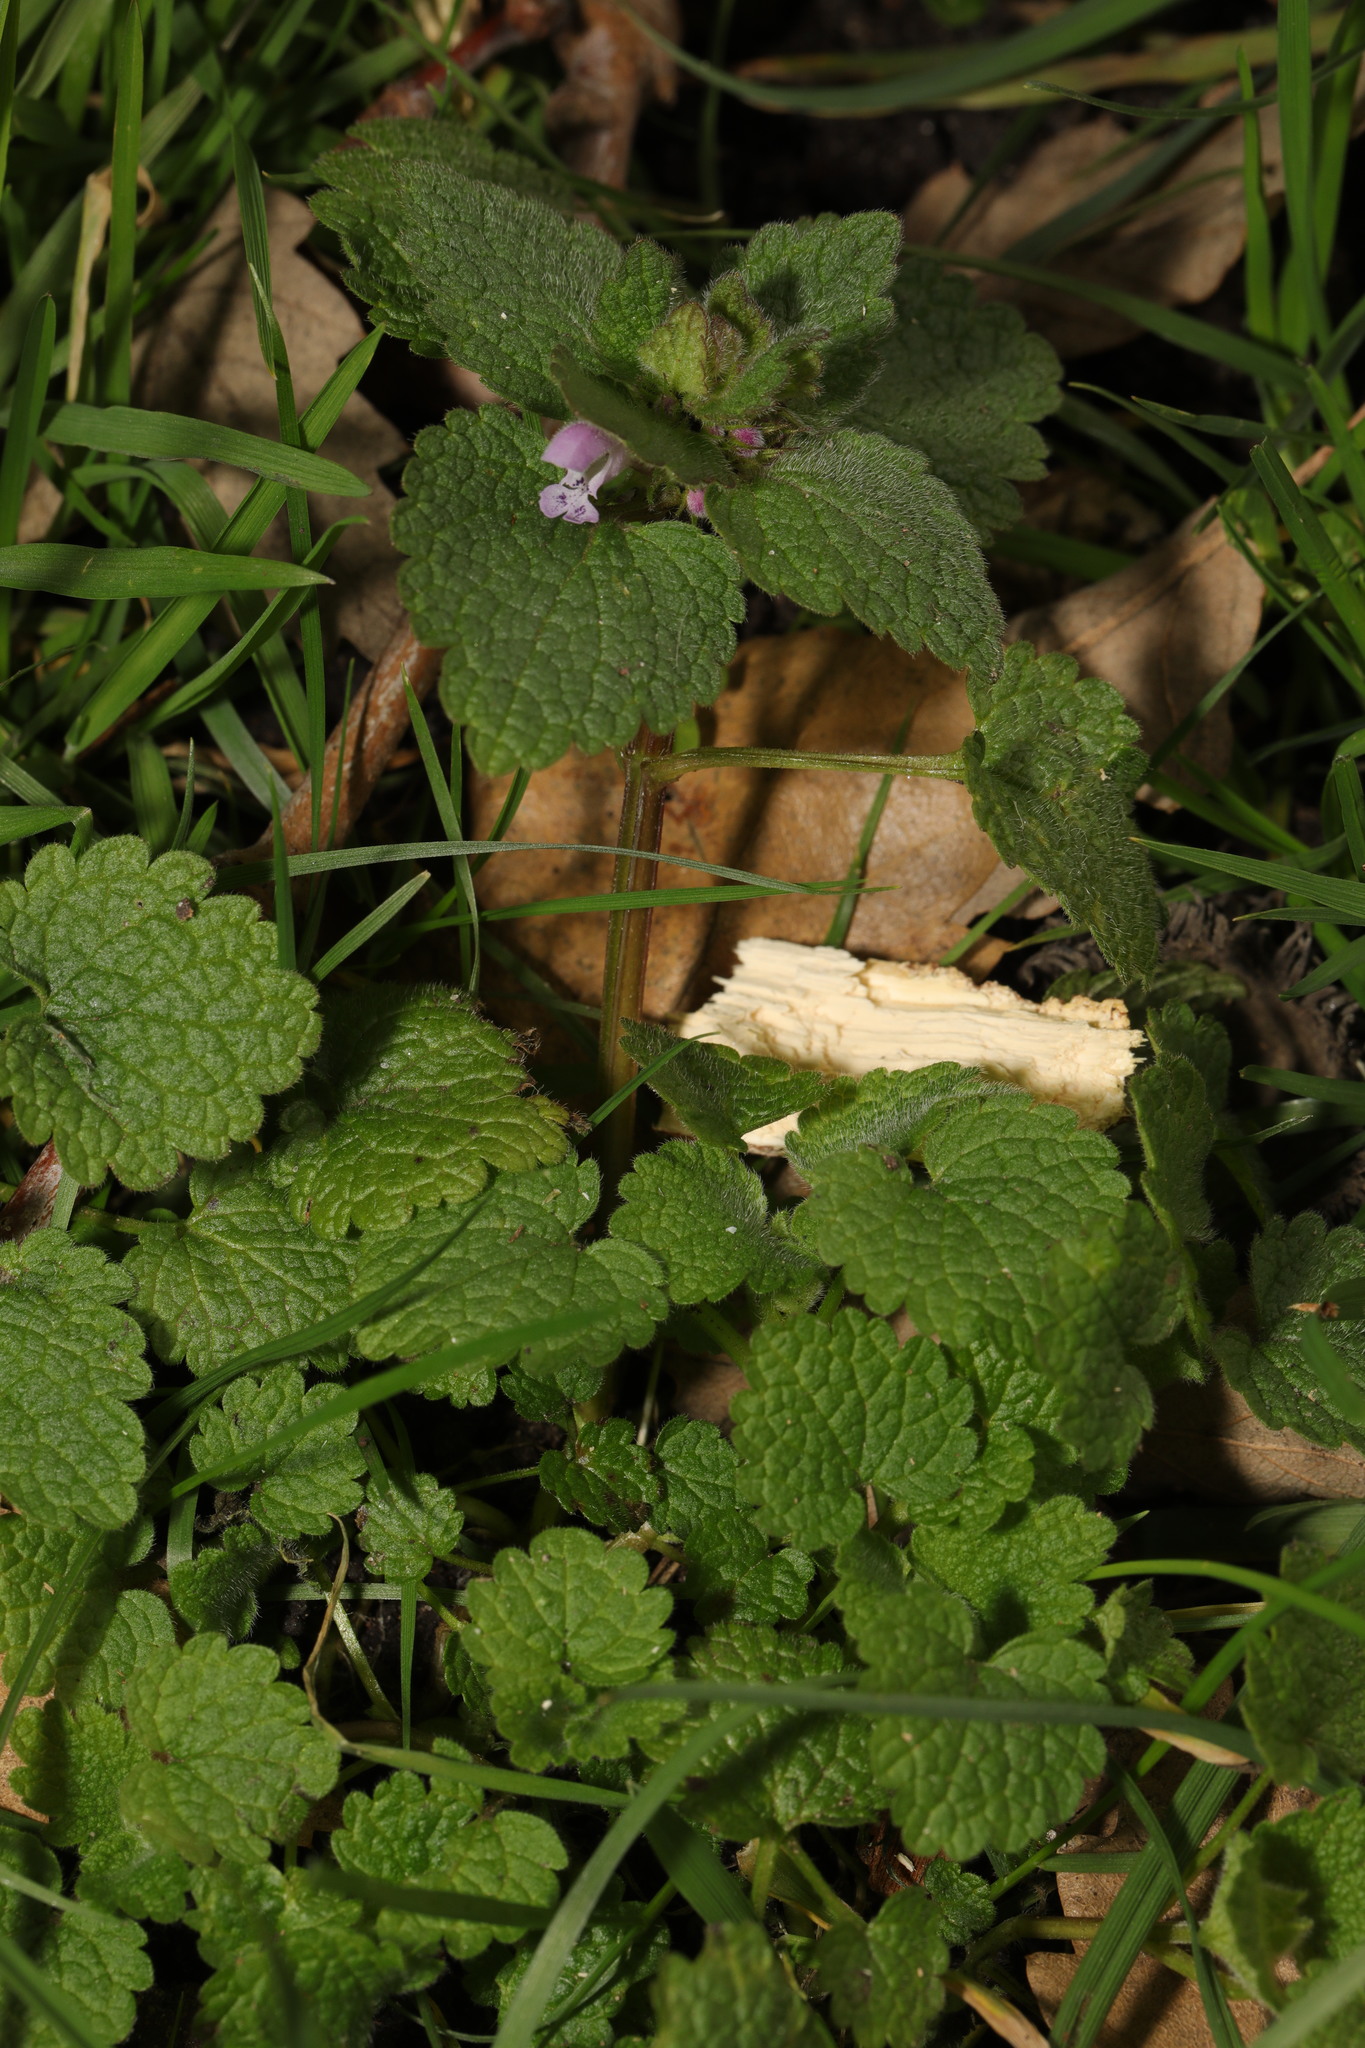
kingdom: Plantae
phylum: Tracheophyta
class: Magnoliopsida
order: Lamiales
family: Lamiaceae
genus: Lamium
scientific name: Lamium purpureum
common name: Red dead-nettle
